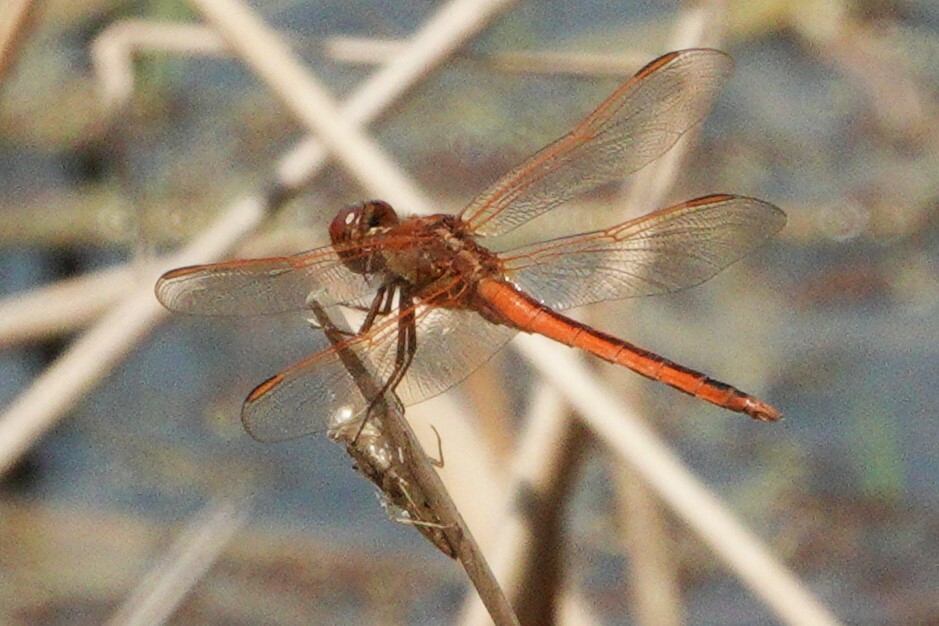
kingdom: Animalia
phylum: Arthropoda
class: Insecta
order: Odonata
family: Libellulidae
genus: Libellula
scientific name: Libellula needhami
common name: Needham's skimmer
